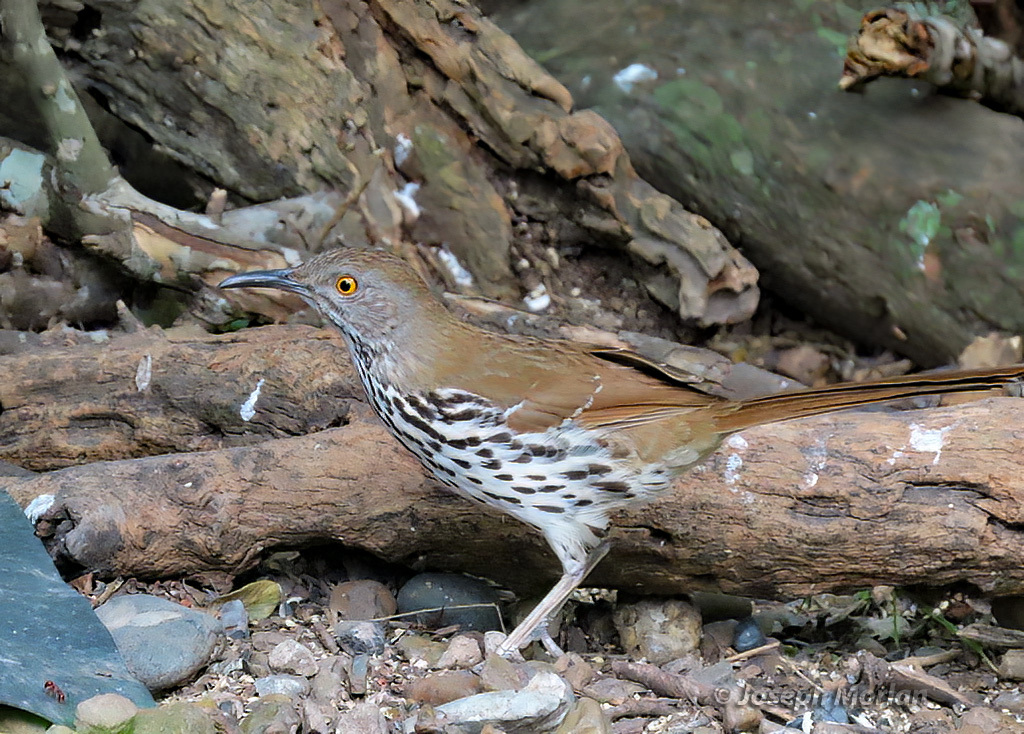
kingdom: Animalia
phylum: Chordata
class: Aves
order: Passeriformes
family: Mimidae
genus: Toxostoma
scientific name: Toxostoma longirostre
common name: Long-billed thrasher
